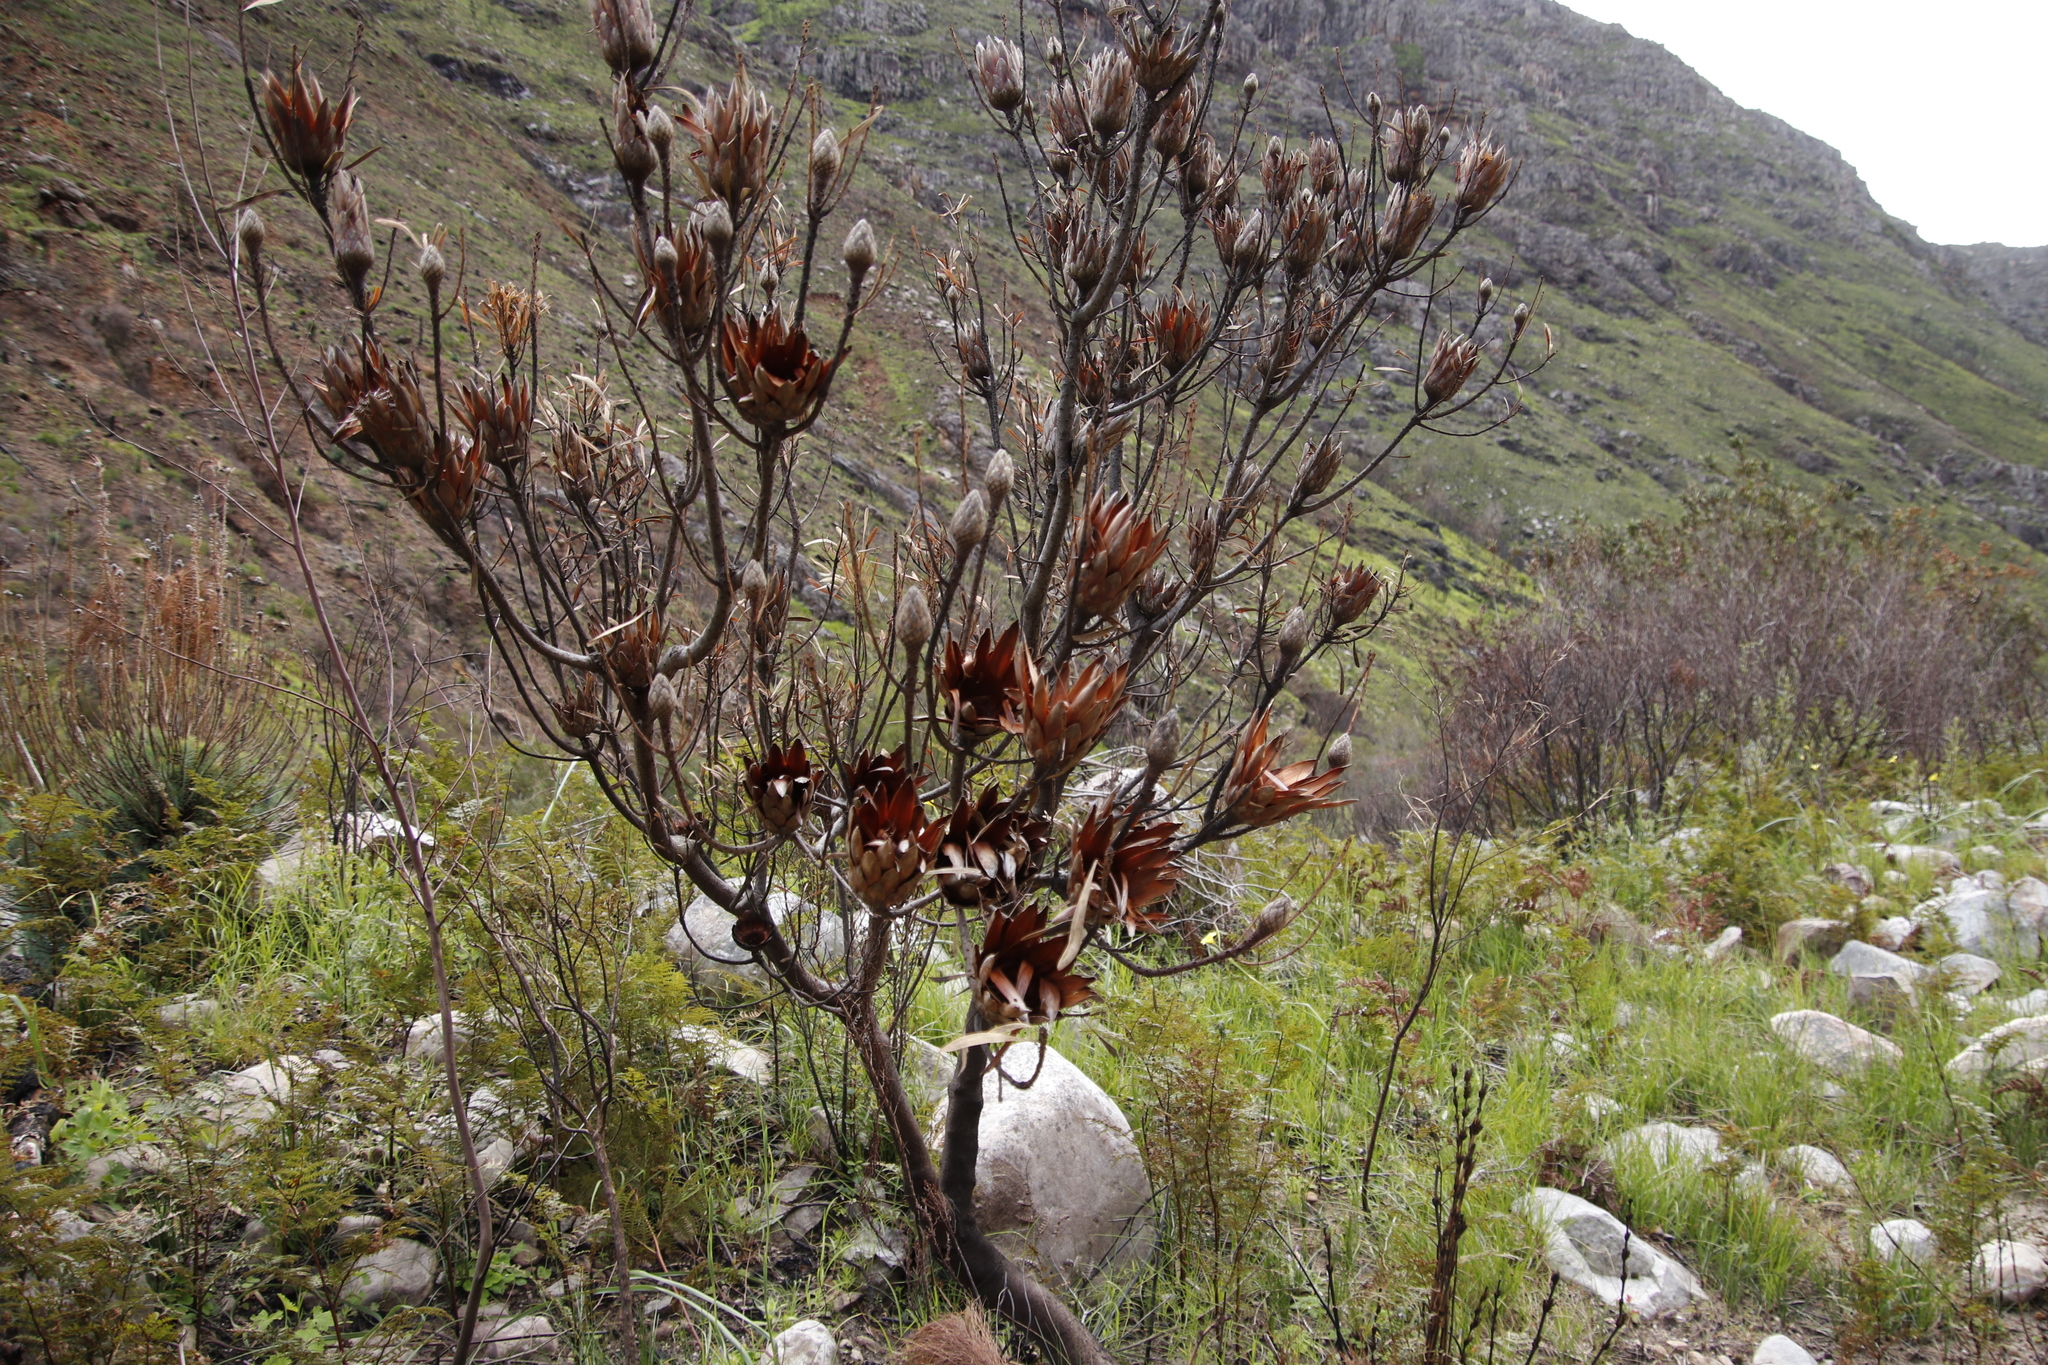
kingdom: Plantae
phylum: Tracheophyta
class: Magnoliopsida
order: Proteales
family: Proteaceae
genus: Protea
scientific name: Protea repens
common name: Sugarbush
